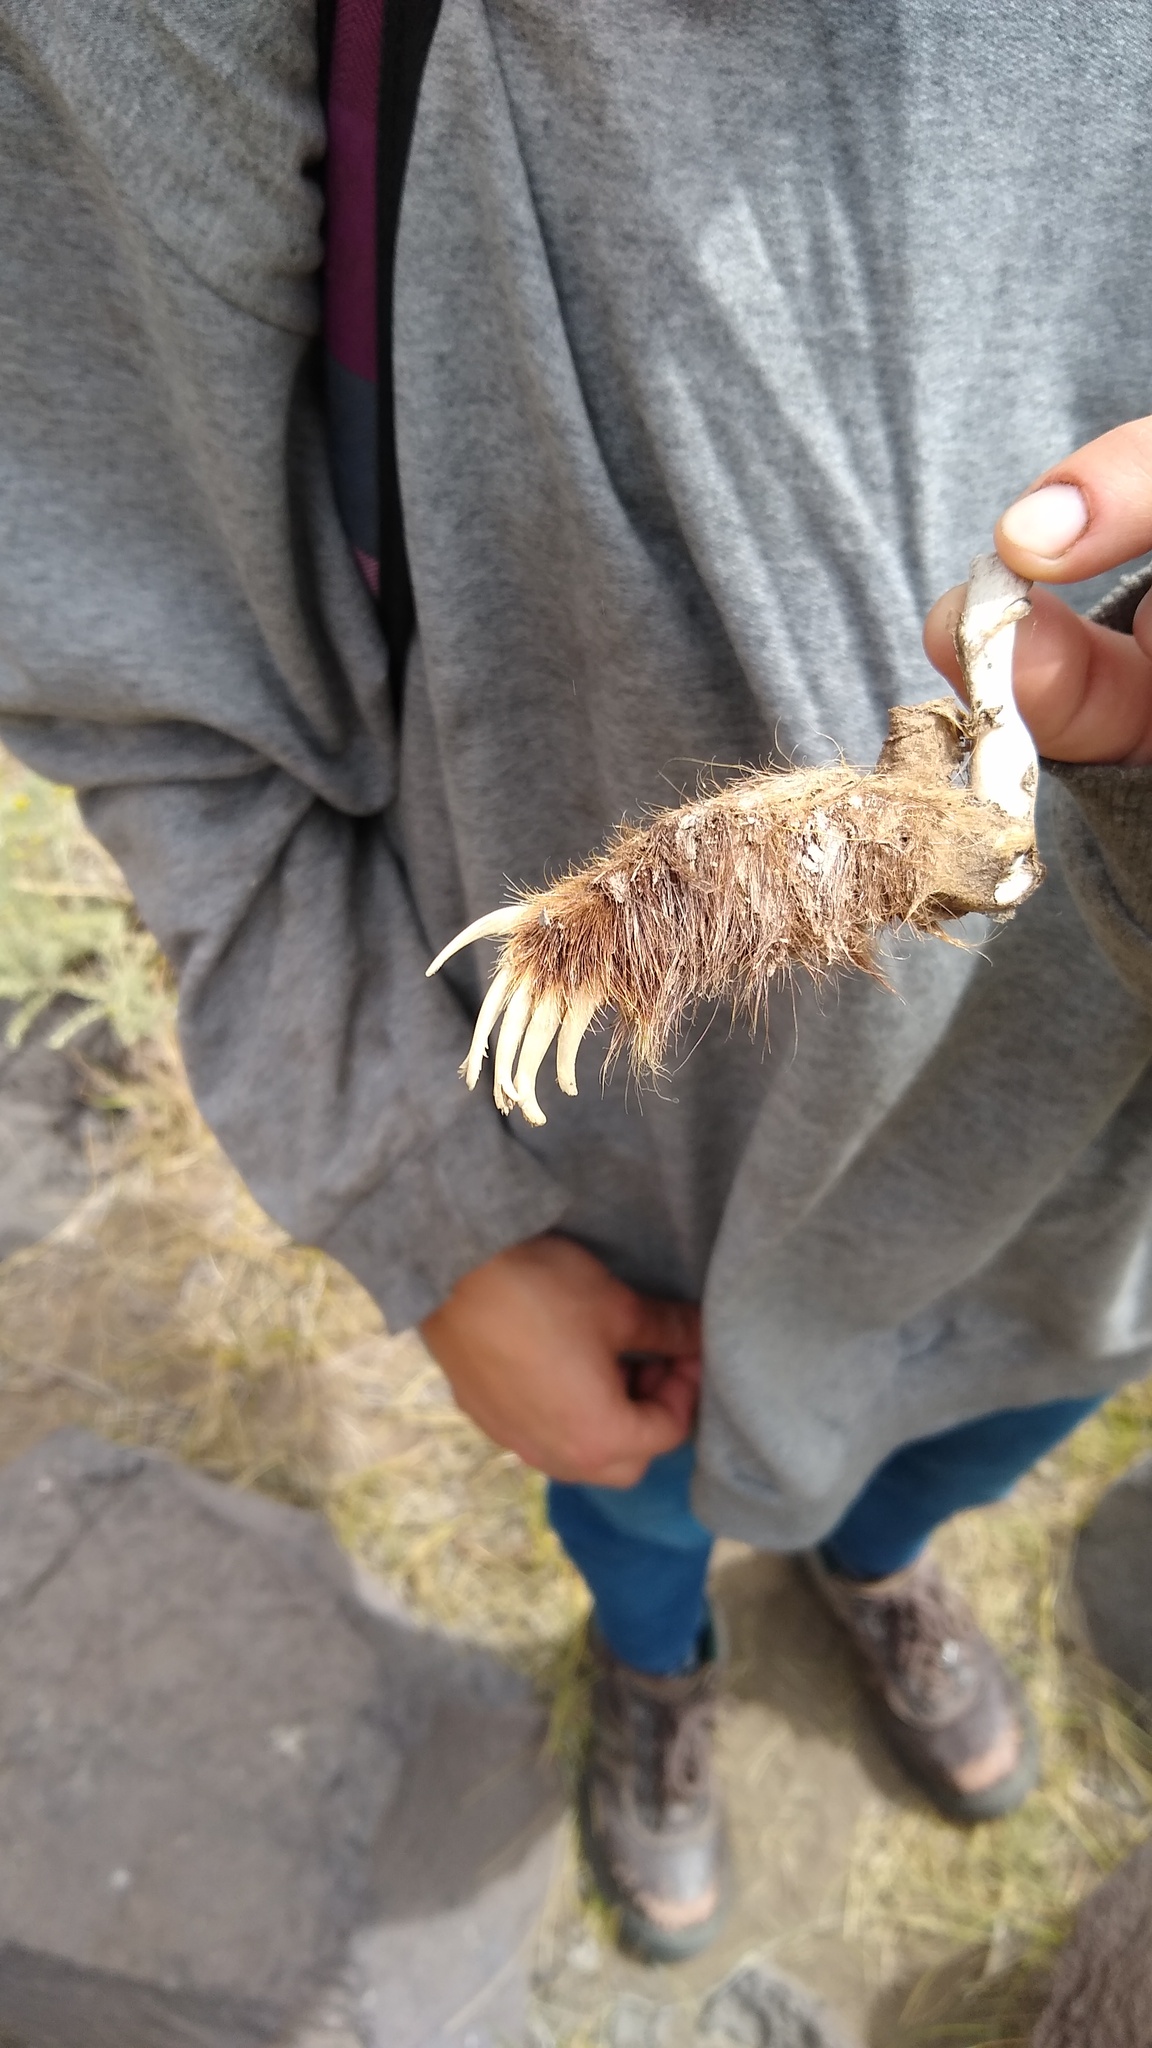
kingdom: Animalia
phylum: Chordata
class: Mammalia
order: Carnivora
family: Mustelidae
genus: Mustela
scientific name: Mustela
